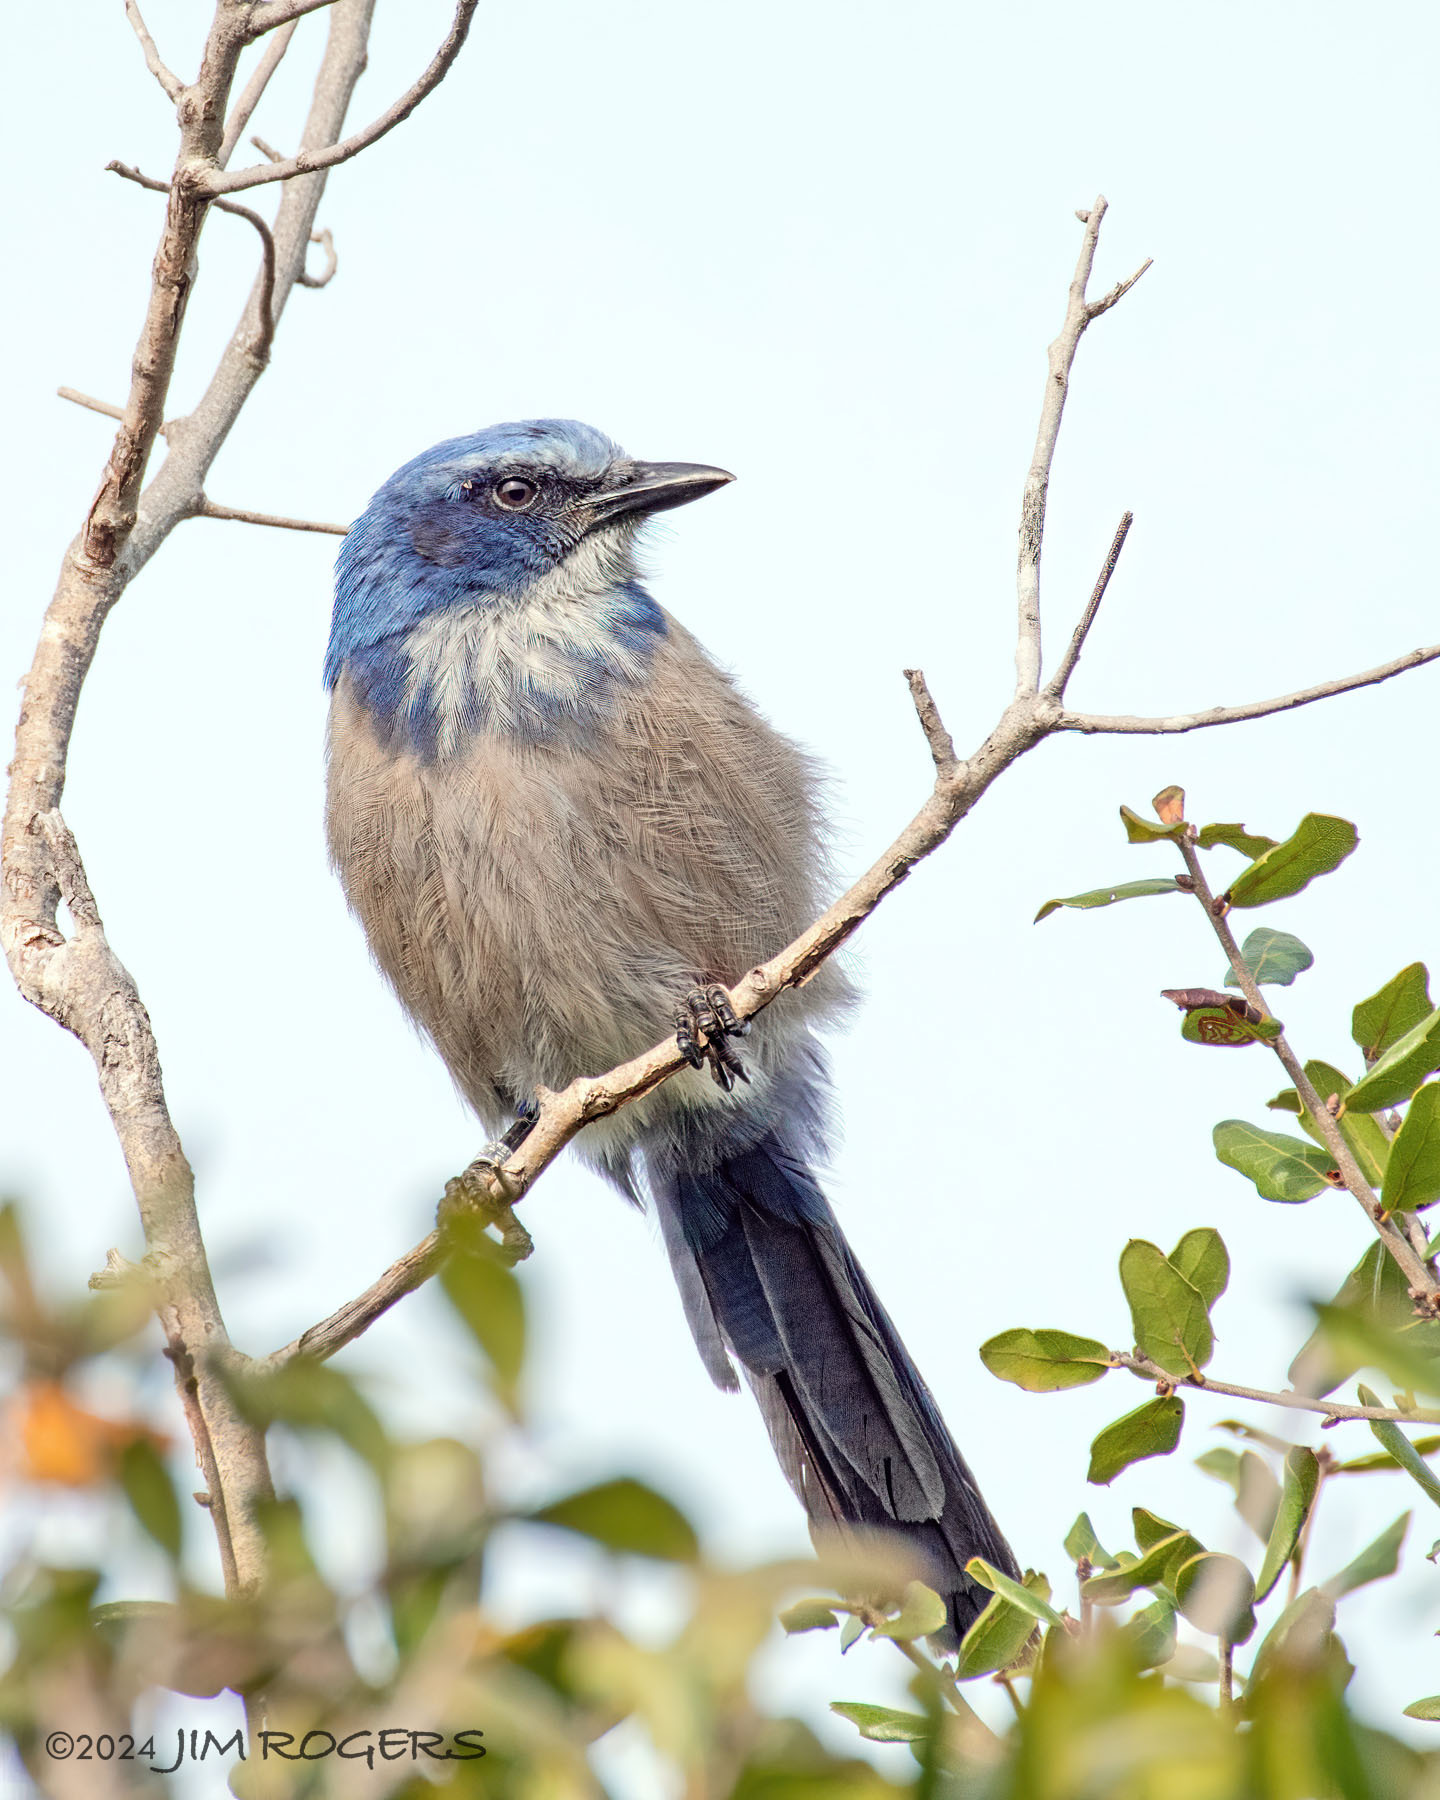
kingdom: Animalia
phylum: Chordata
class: Aves
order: Passeriformes
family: Corvidae
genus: Aphelocoma
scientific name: Aphelocoma coerulescens
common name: Florida scrub jay
